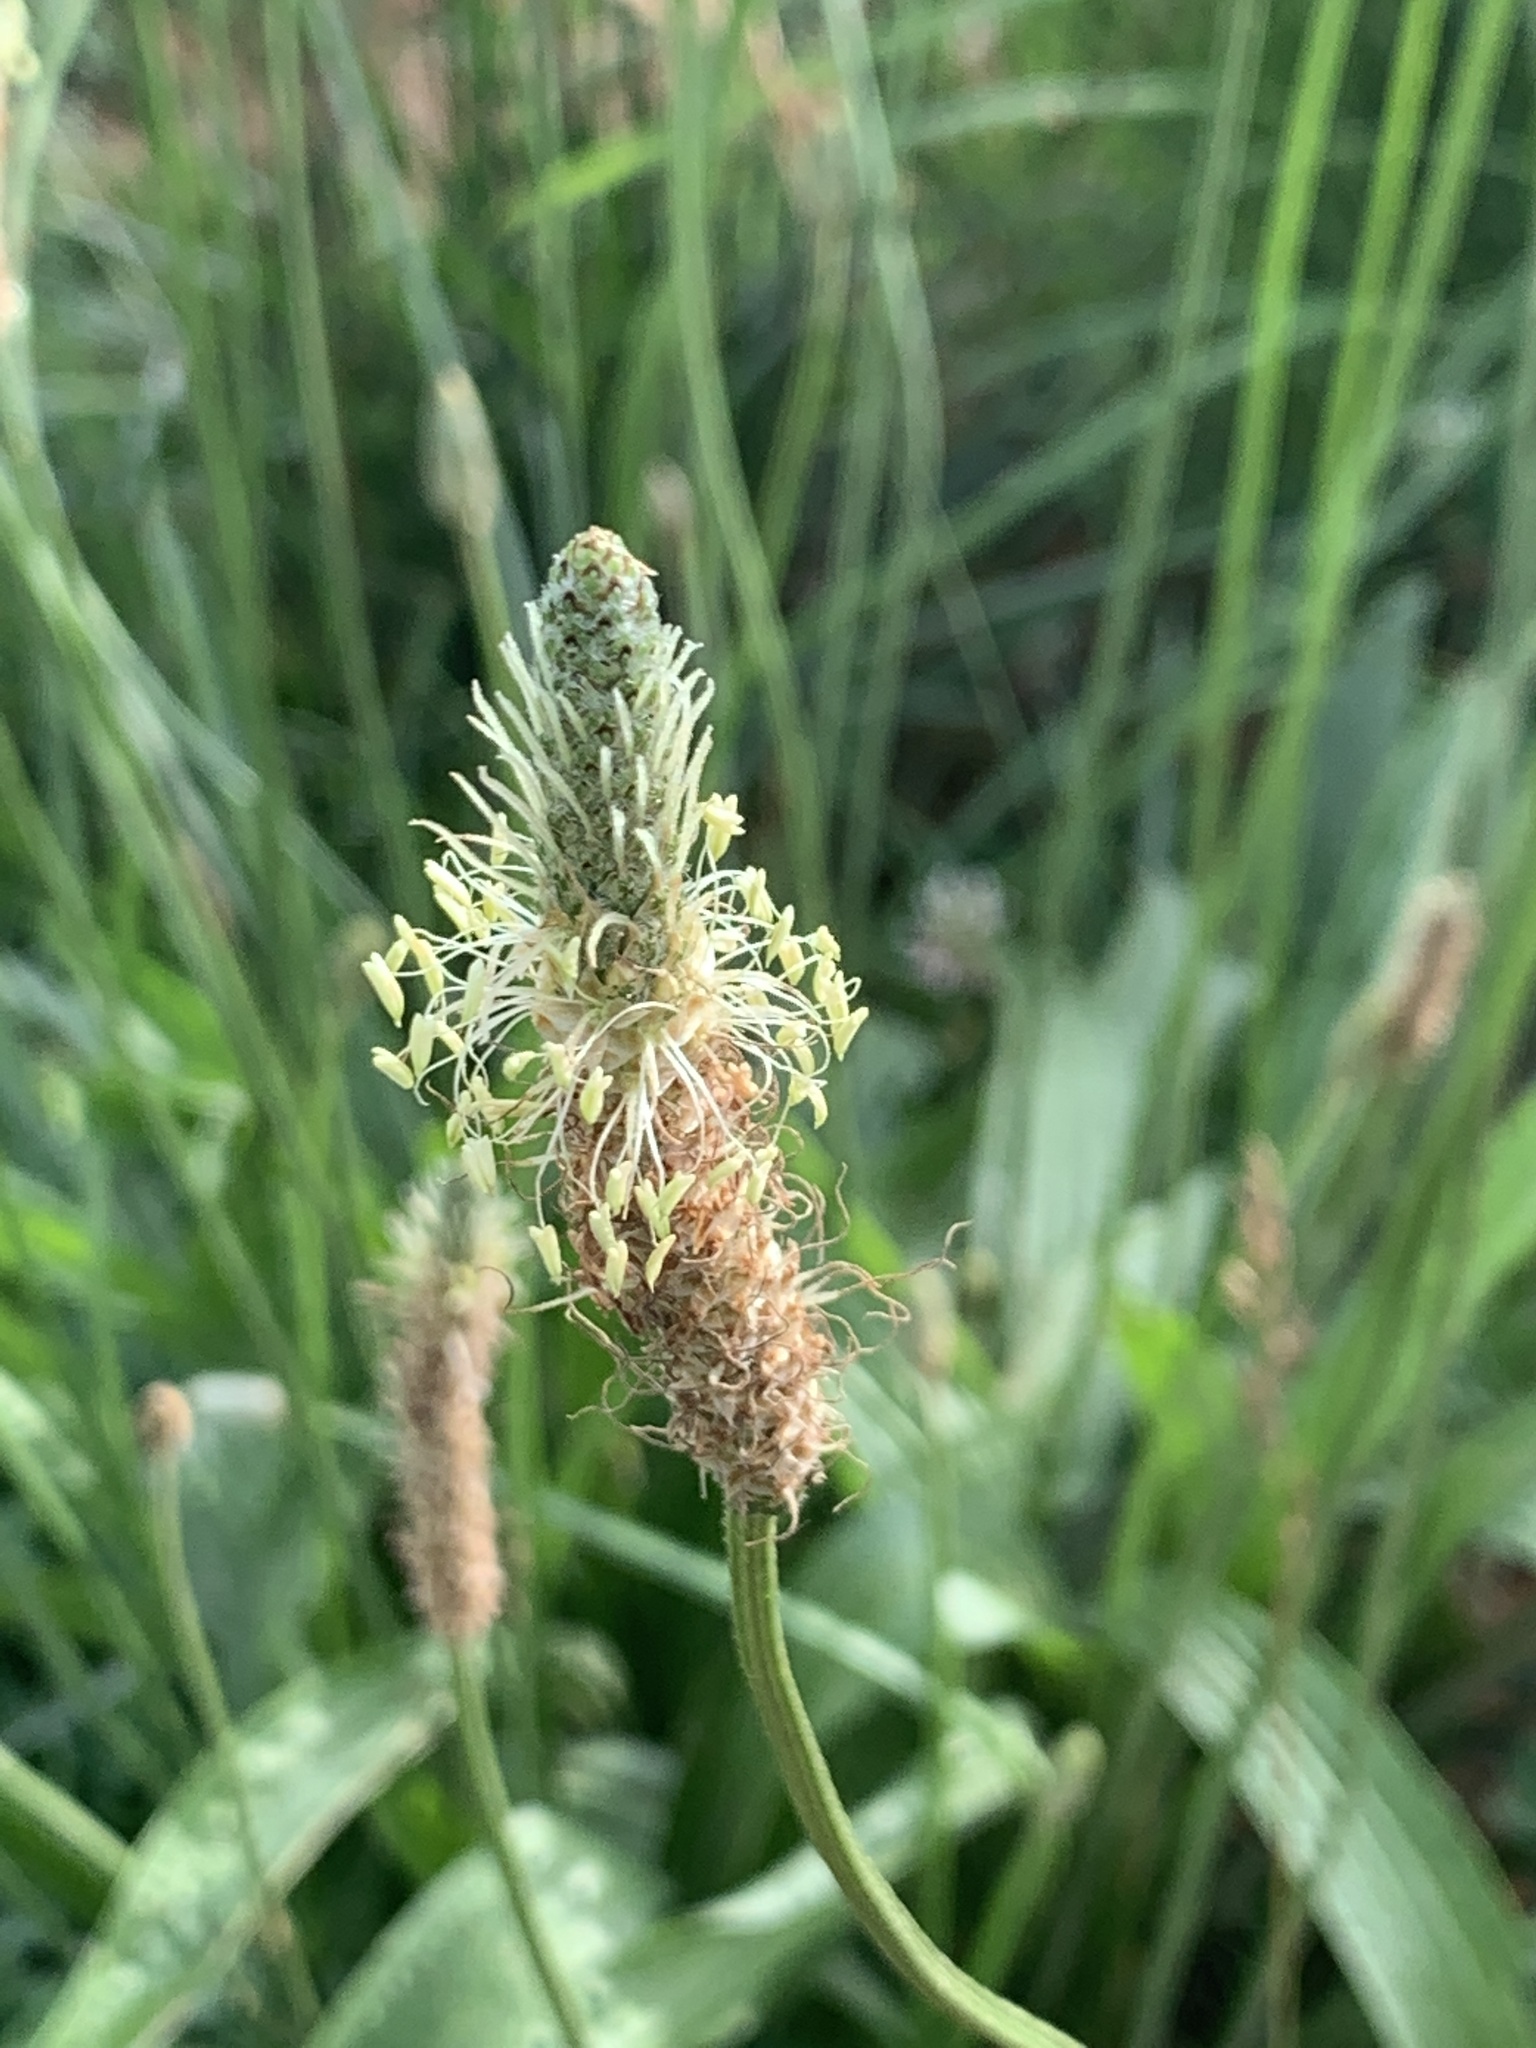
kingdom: Plantae
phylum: Tracheophyta
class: Magnoliopsida
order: Lamiales
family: Plantaginaceae
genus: Plantago
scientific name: Plantago lanceolata
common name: Ribwort plantain
